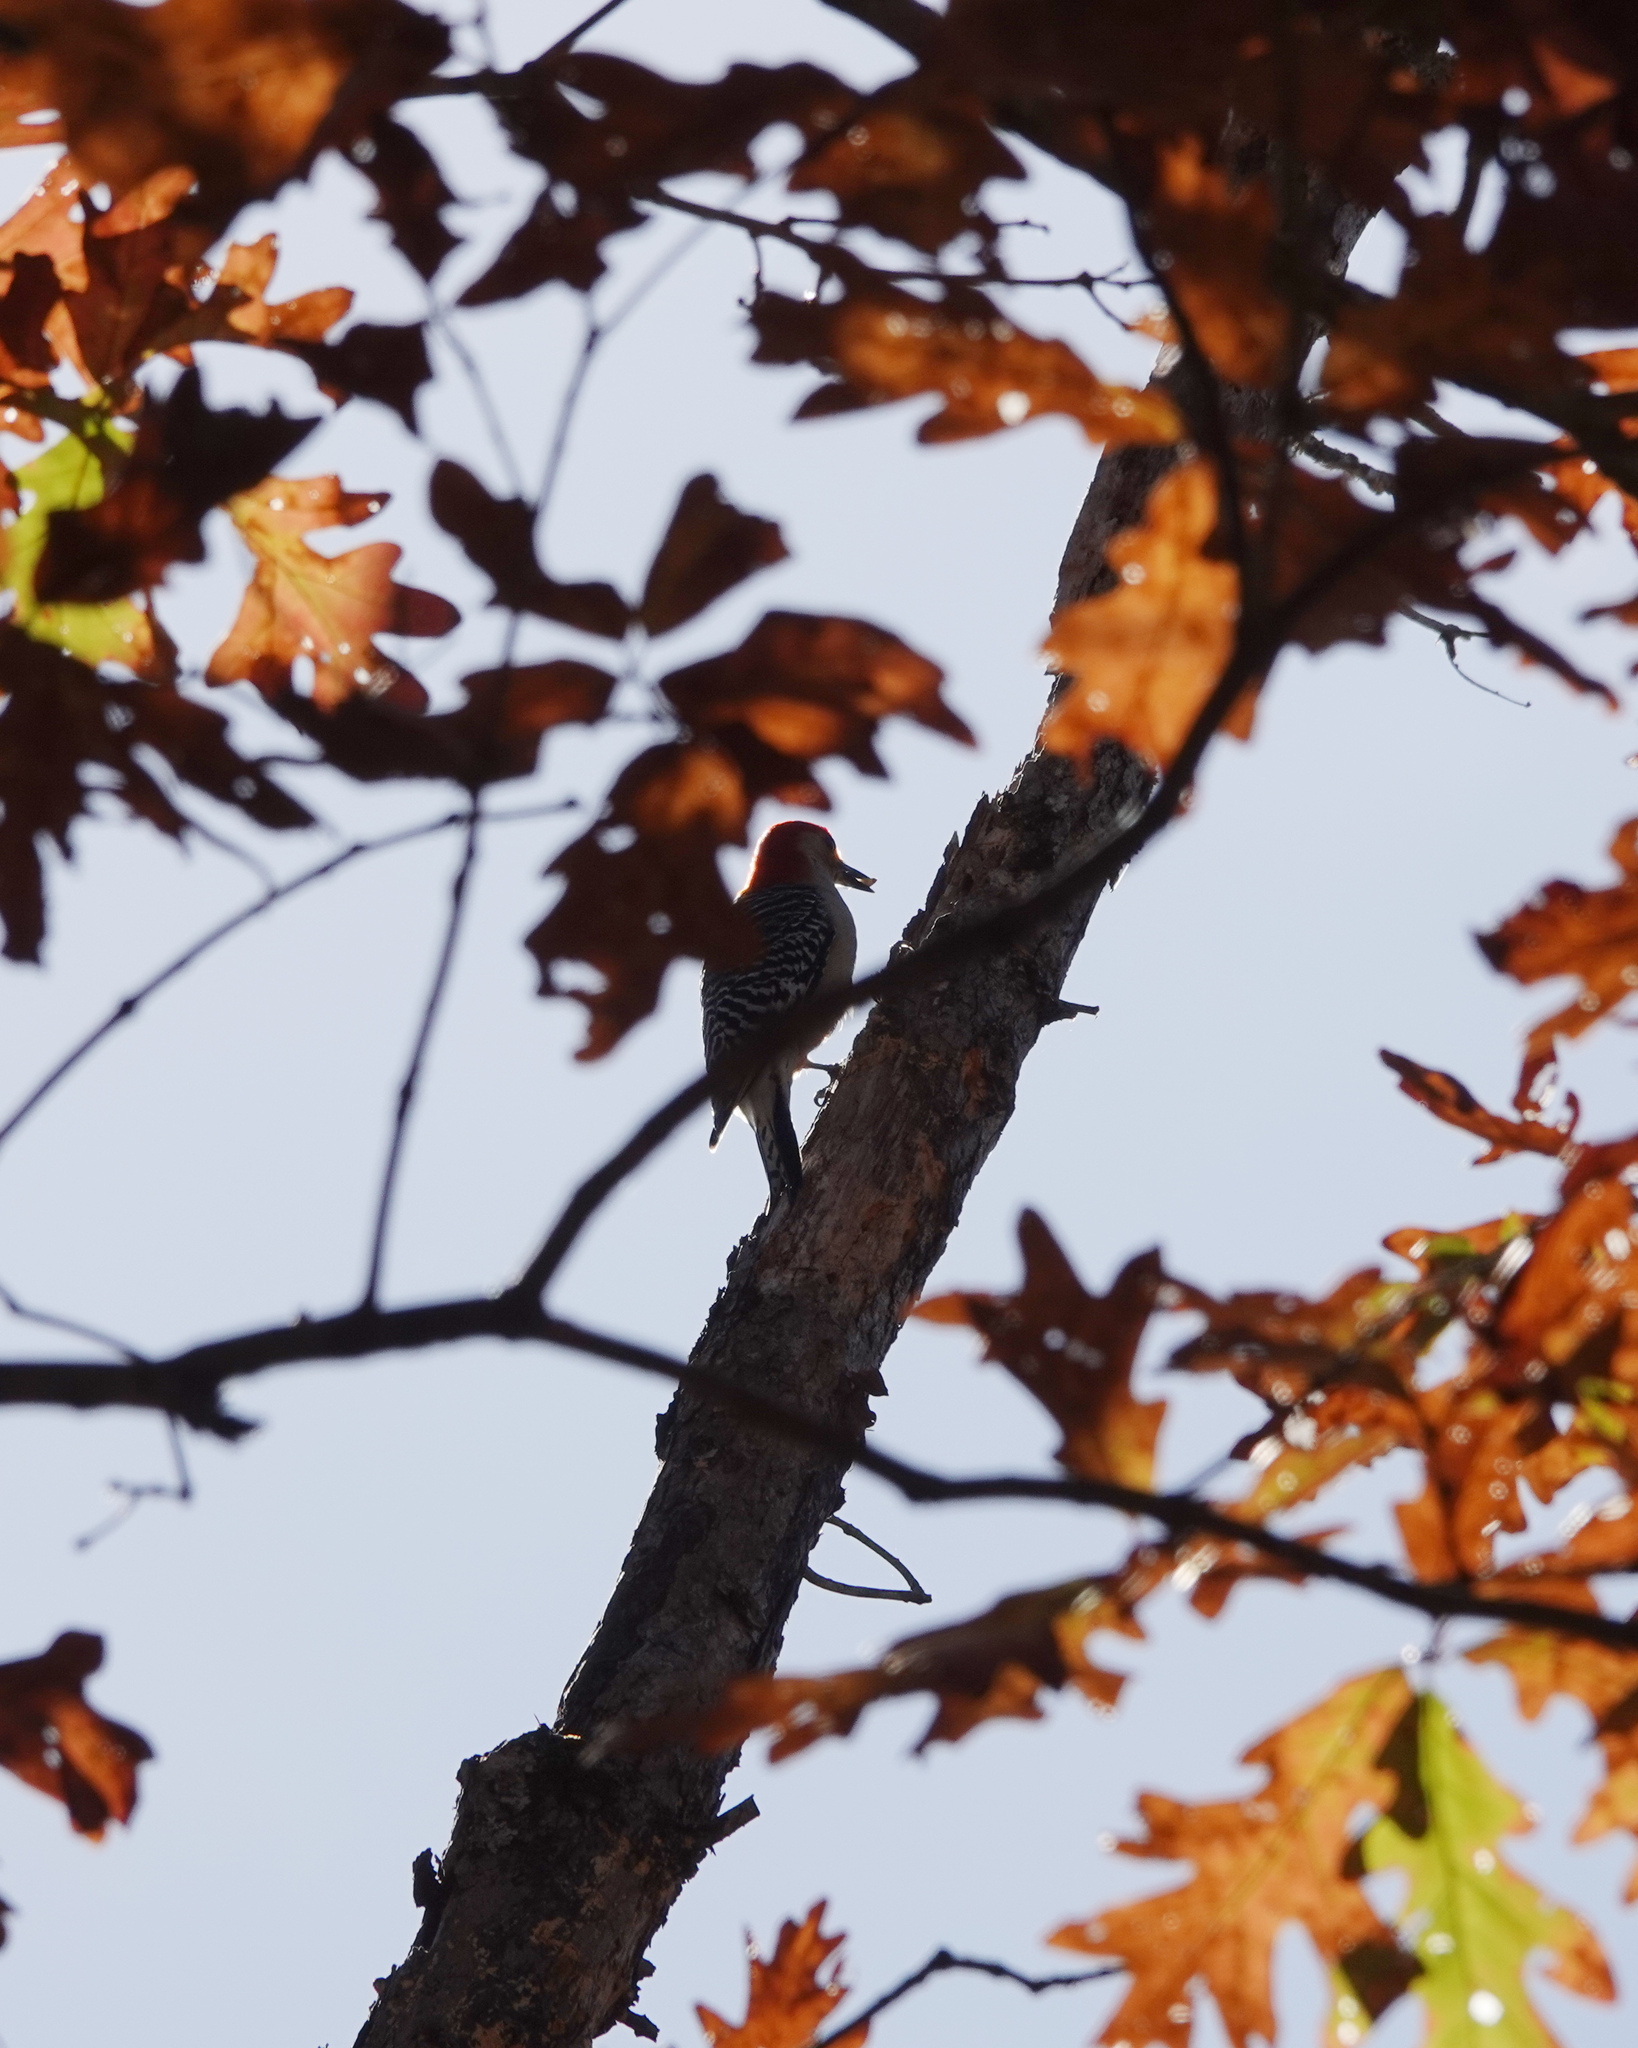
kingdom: Animalia
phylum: Chordata
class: Aves
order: Piciformes
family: Picidae
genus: Melanerpes
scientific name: Melanerpes carolinus
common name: Red-bellied woodpecker
